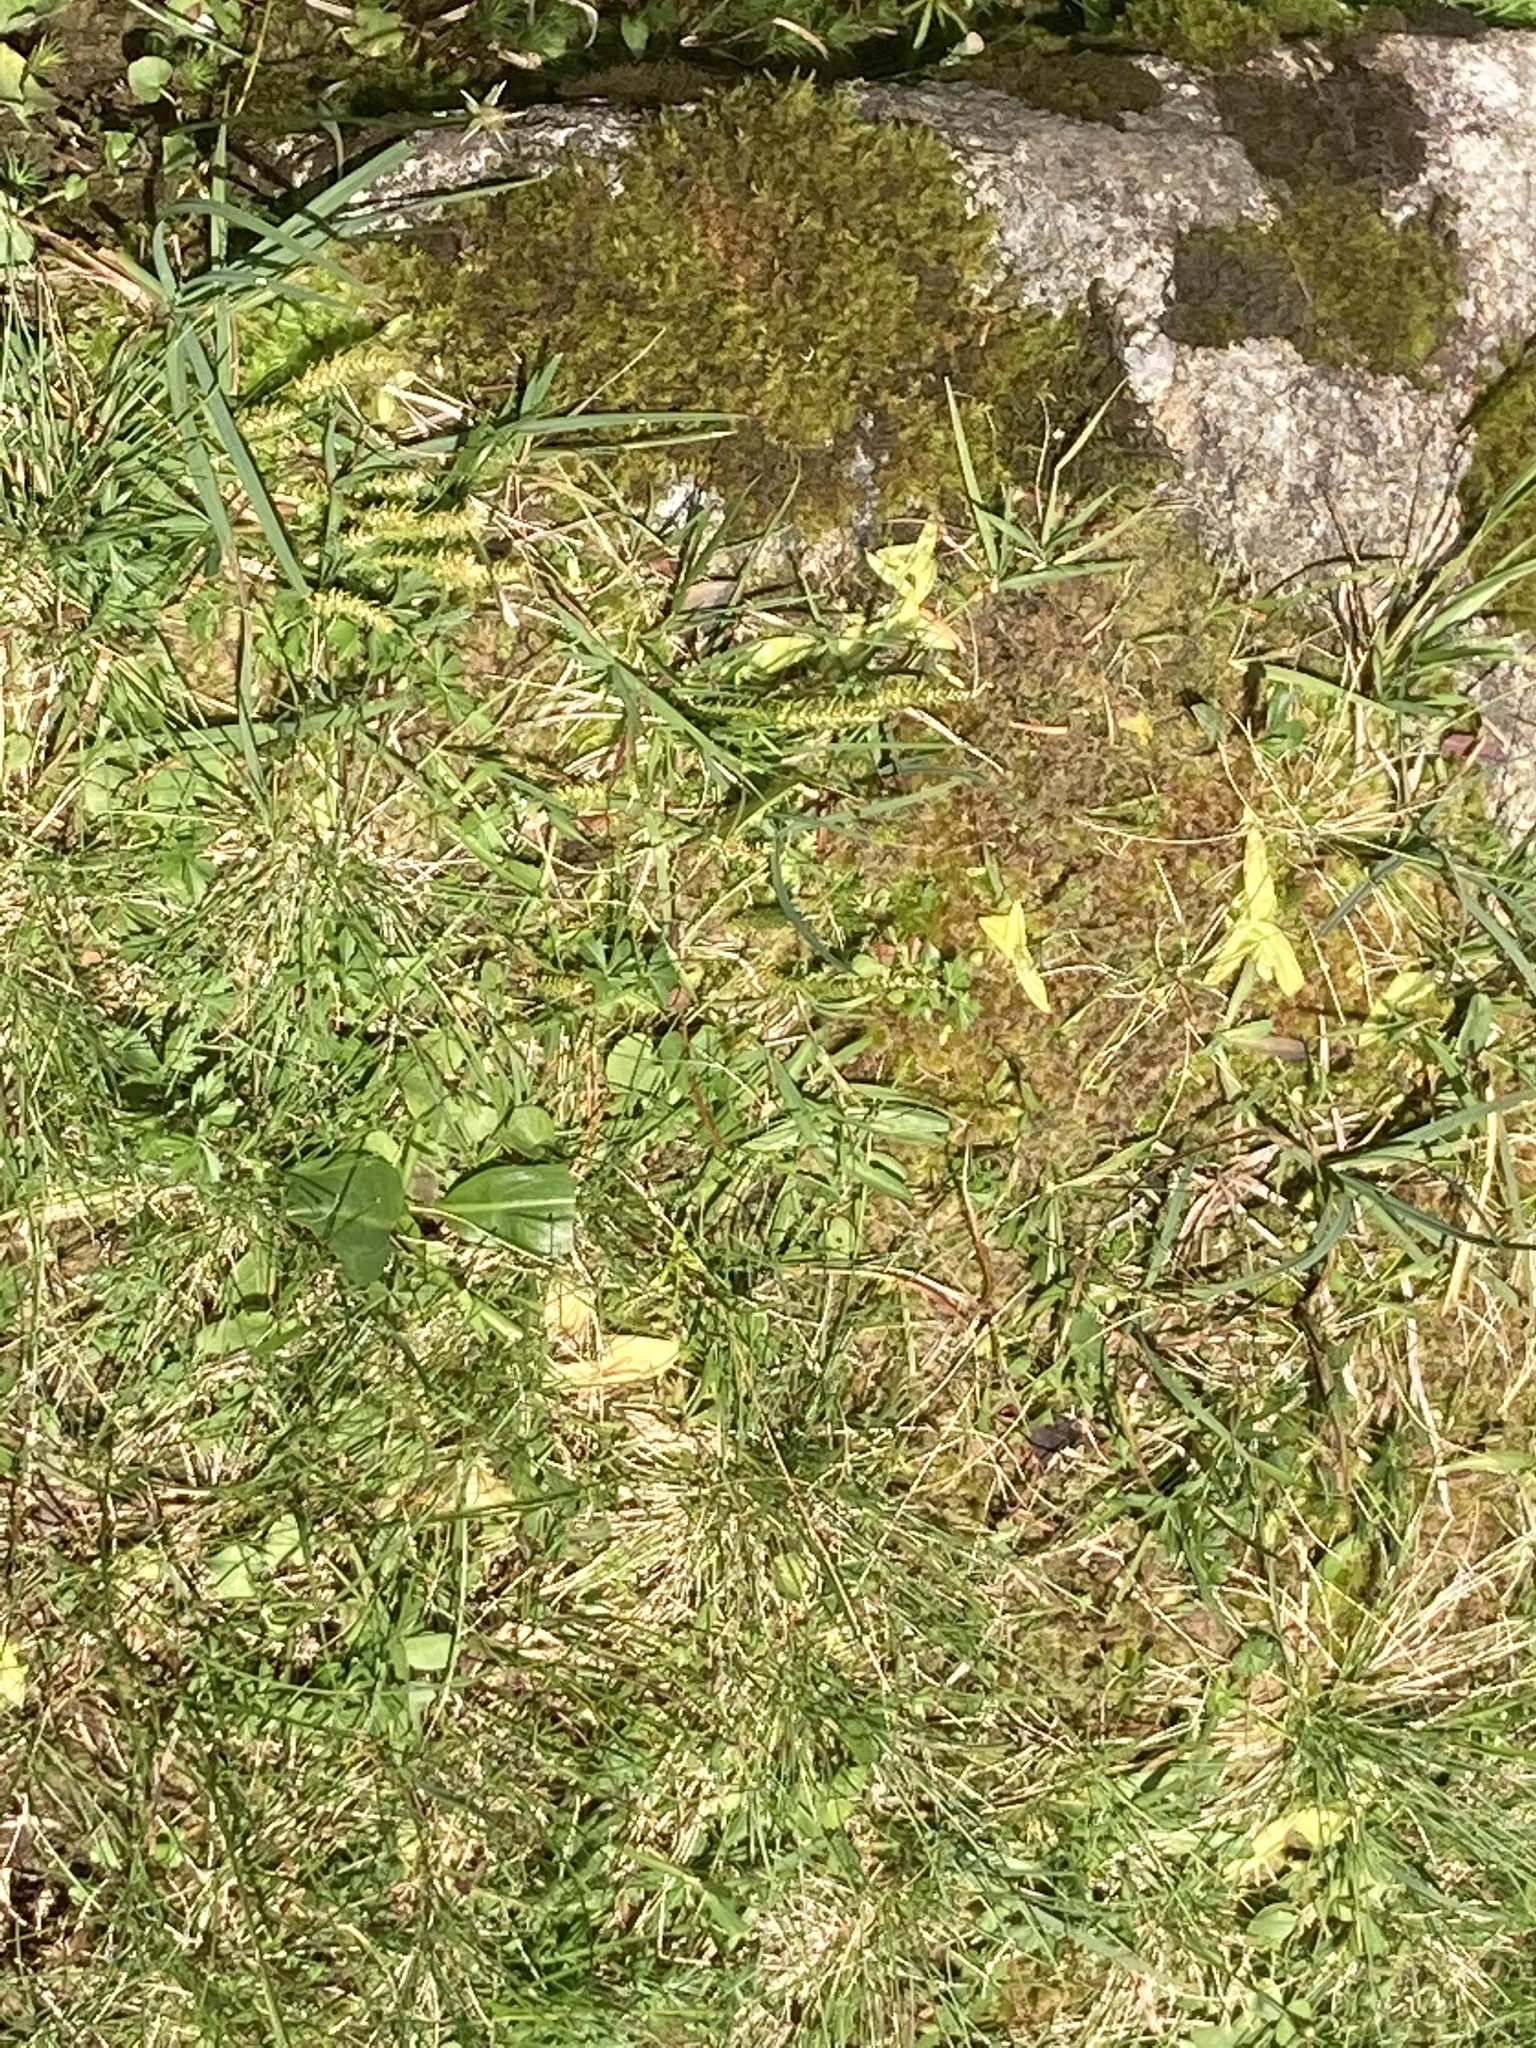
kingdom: Plantae
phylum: Tracheophyta
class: Lycopodiopsida
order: Selaginellales
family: Selaginellaceae
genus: Selaginella
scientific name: Selaginella selaginoides
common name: Prickly mountain-moss
